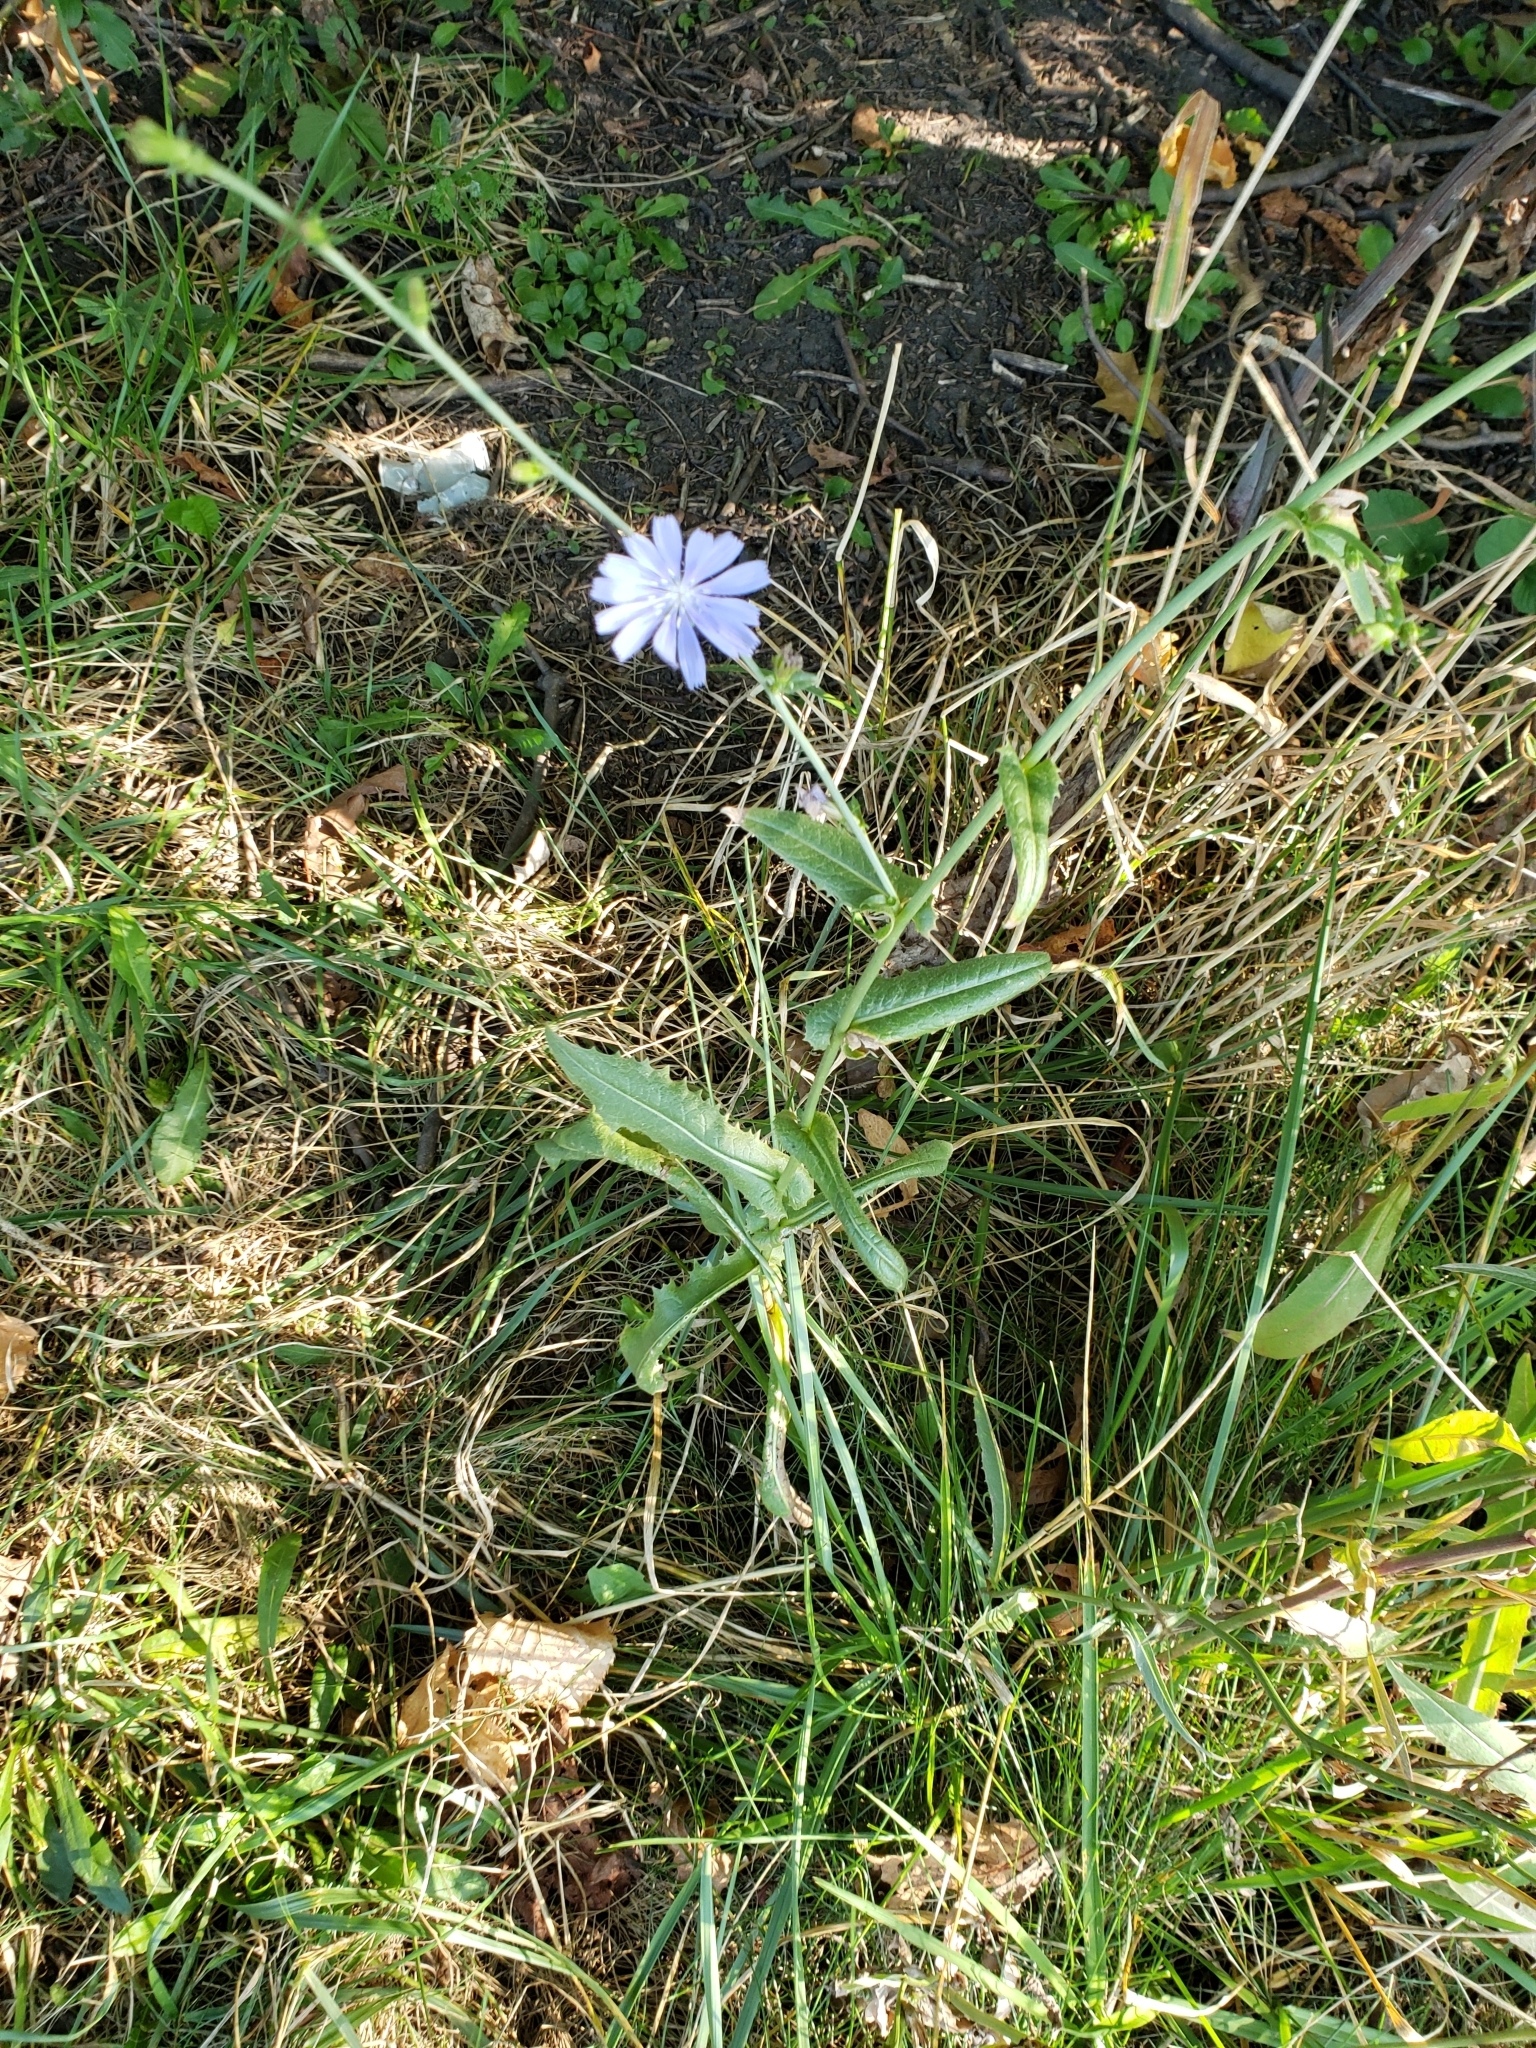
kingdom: Plantae
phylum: Tracheophyta
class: Magnoliopsida
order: Asterales
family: Asteraceae
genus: Cichorium
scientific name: Cichorium intybus
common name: Chicory
